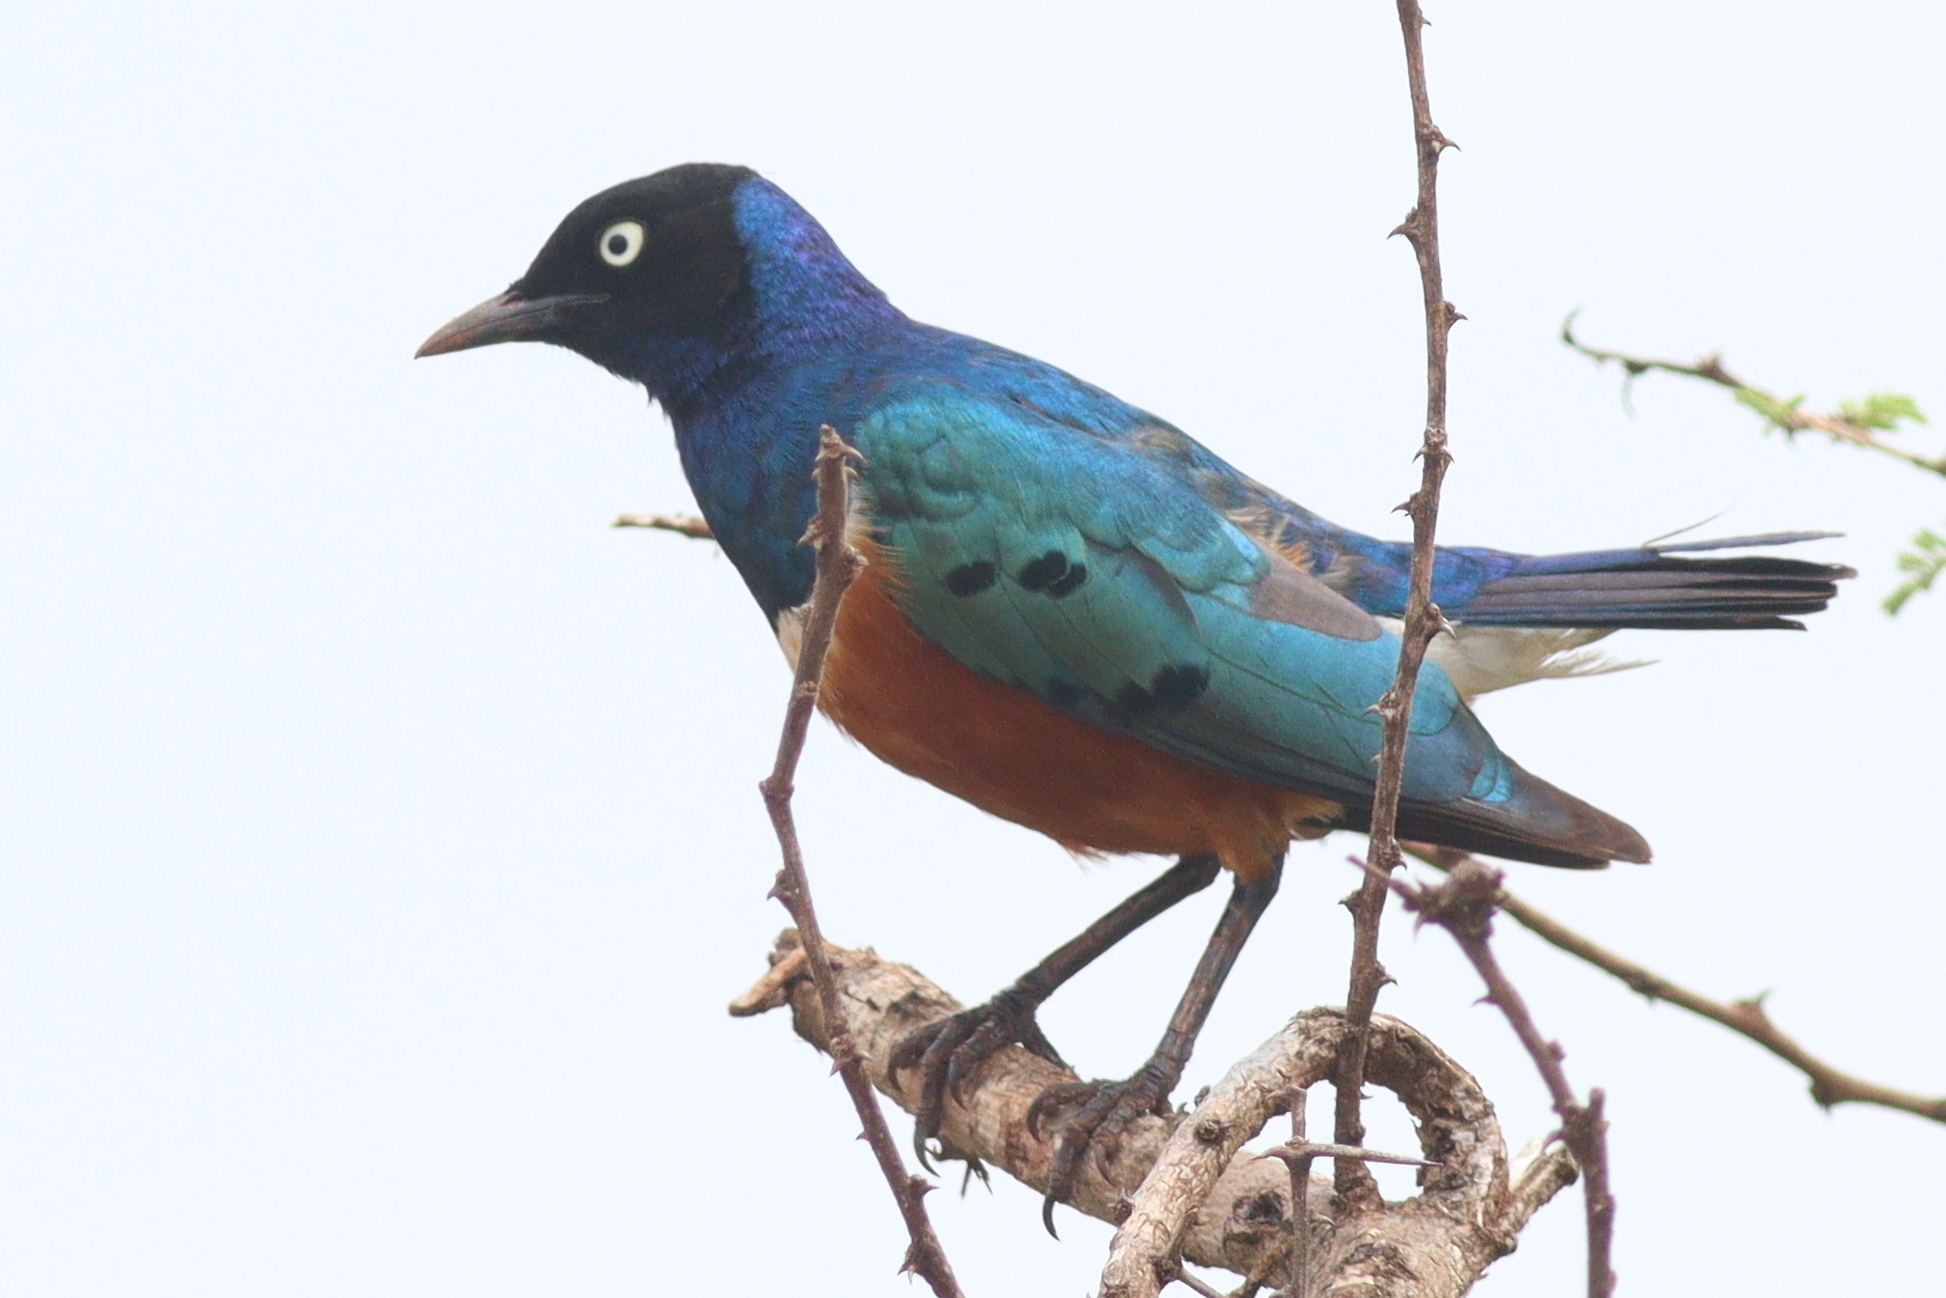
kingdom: Animalia
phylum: Chordata
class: Aves
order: Passeriformes
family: Sturnidae
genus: Lamprotornis
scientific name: Lamprotornis superbus
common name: Superb starling
